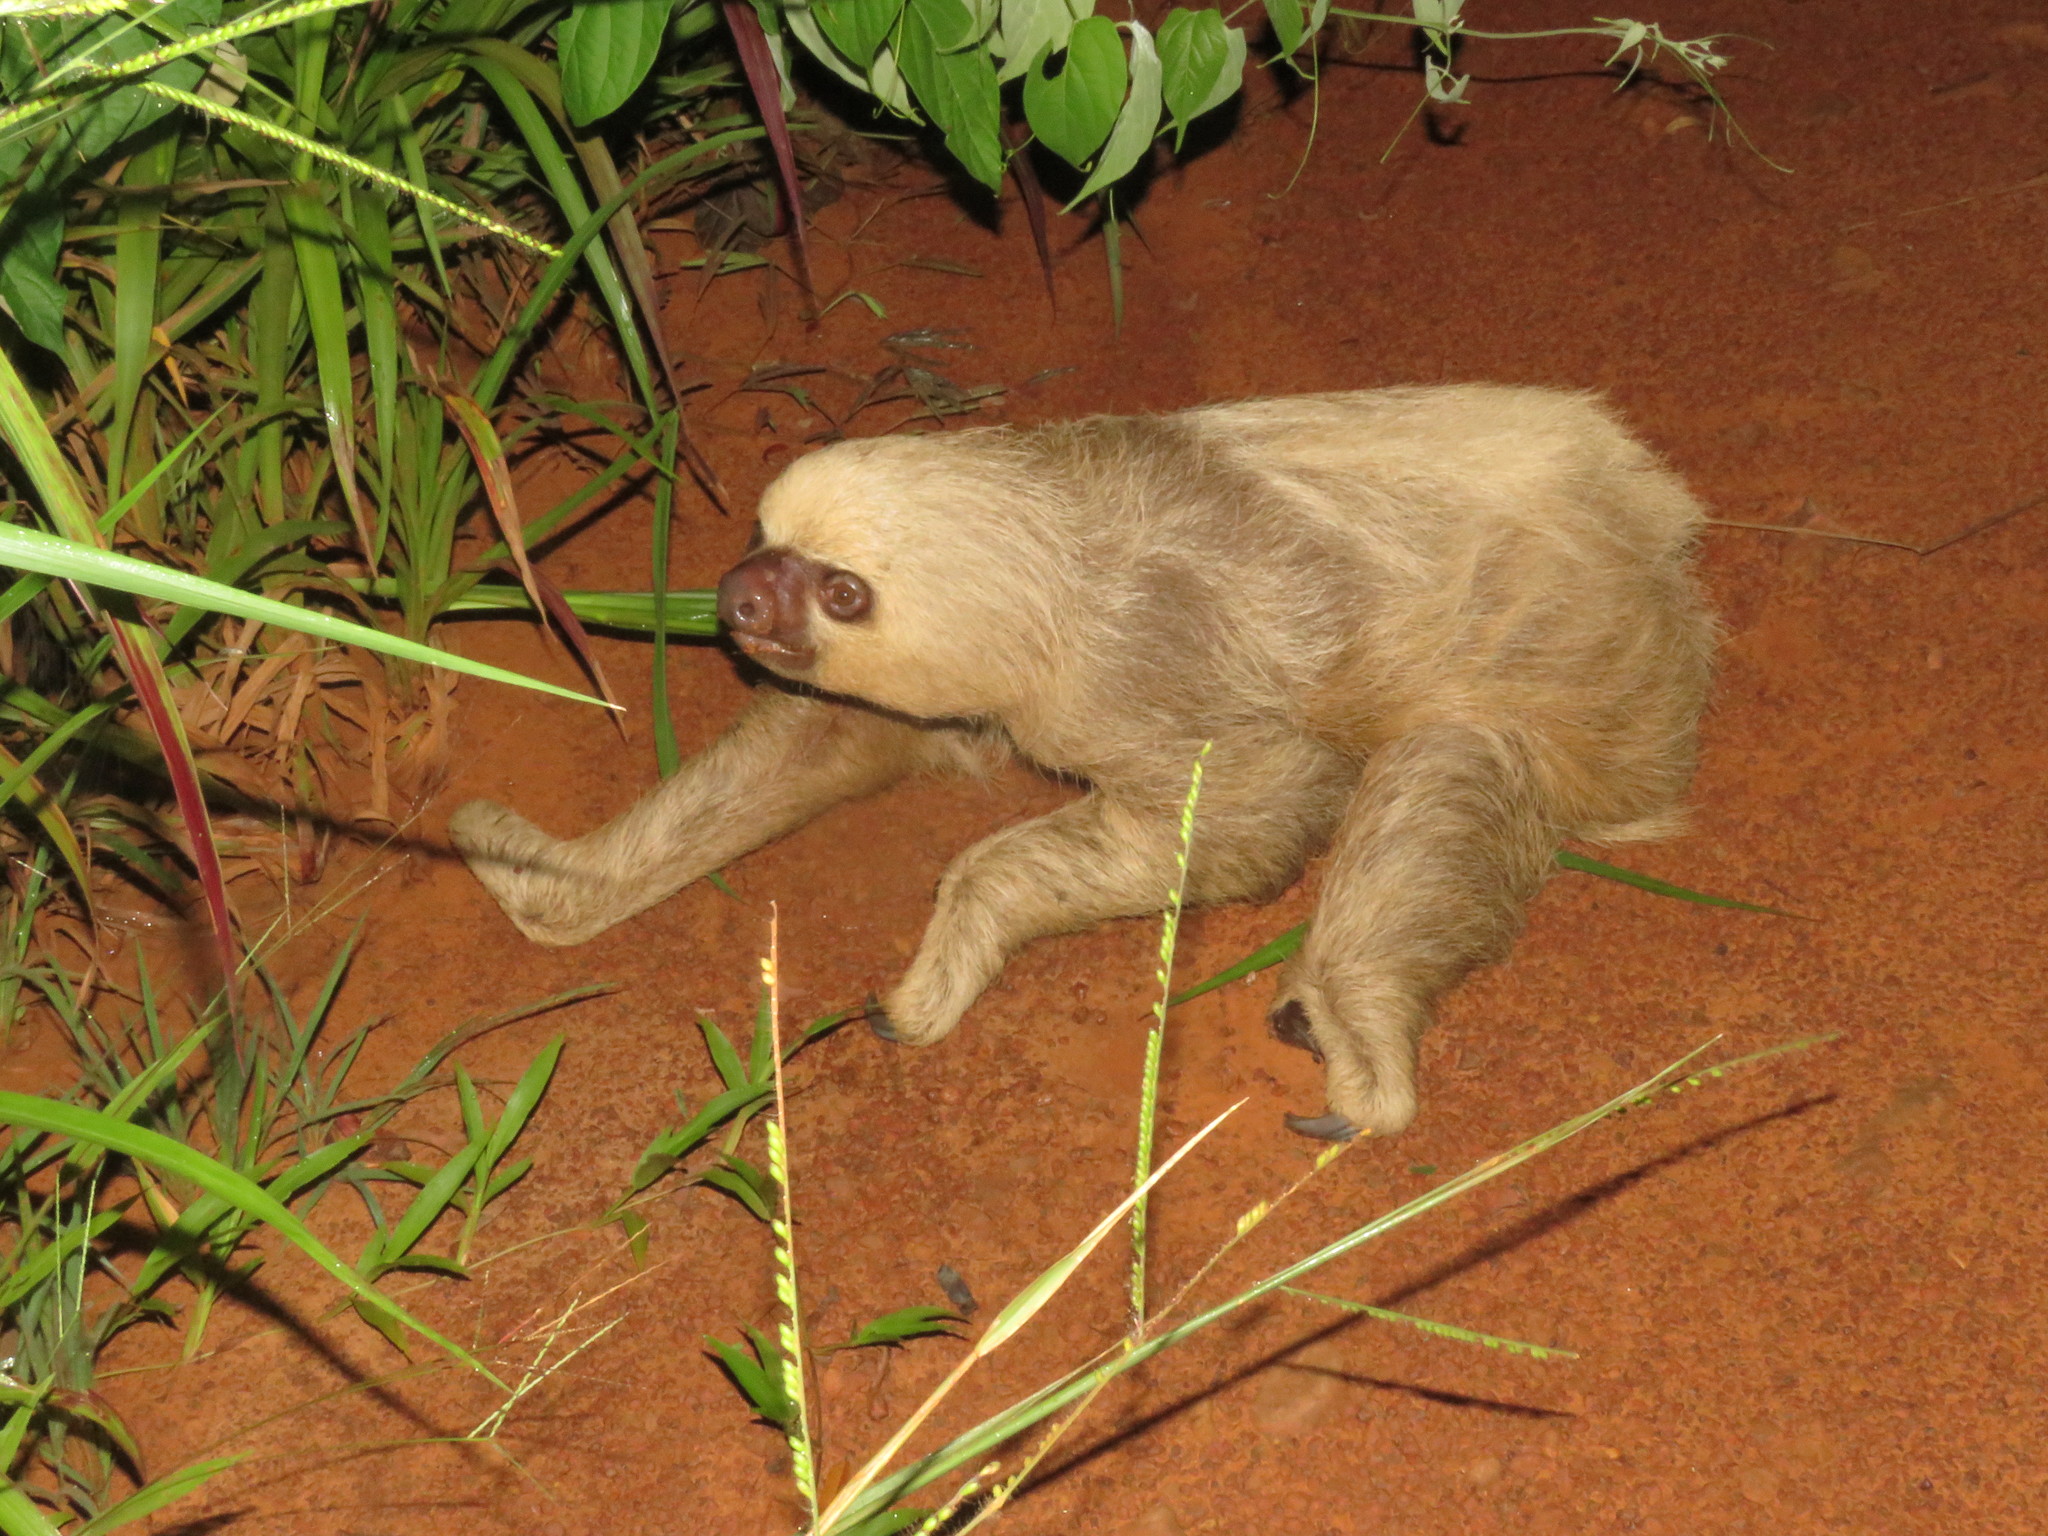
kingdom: Animalia
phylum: Chordata
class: Mammalia
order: Pilosa
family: Megalonychidae
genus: Choloepus
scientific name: Choloepus hoffmanni
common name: Hoffmann's two-toed sloth
